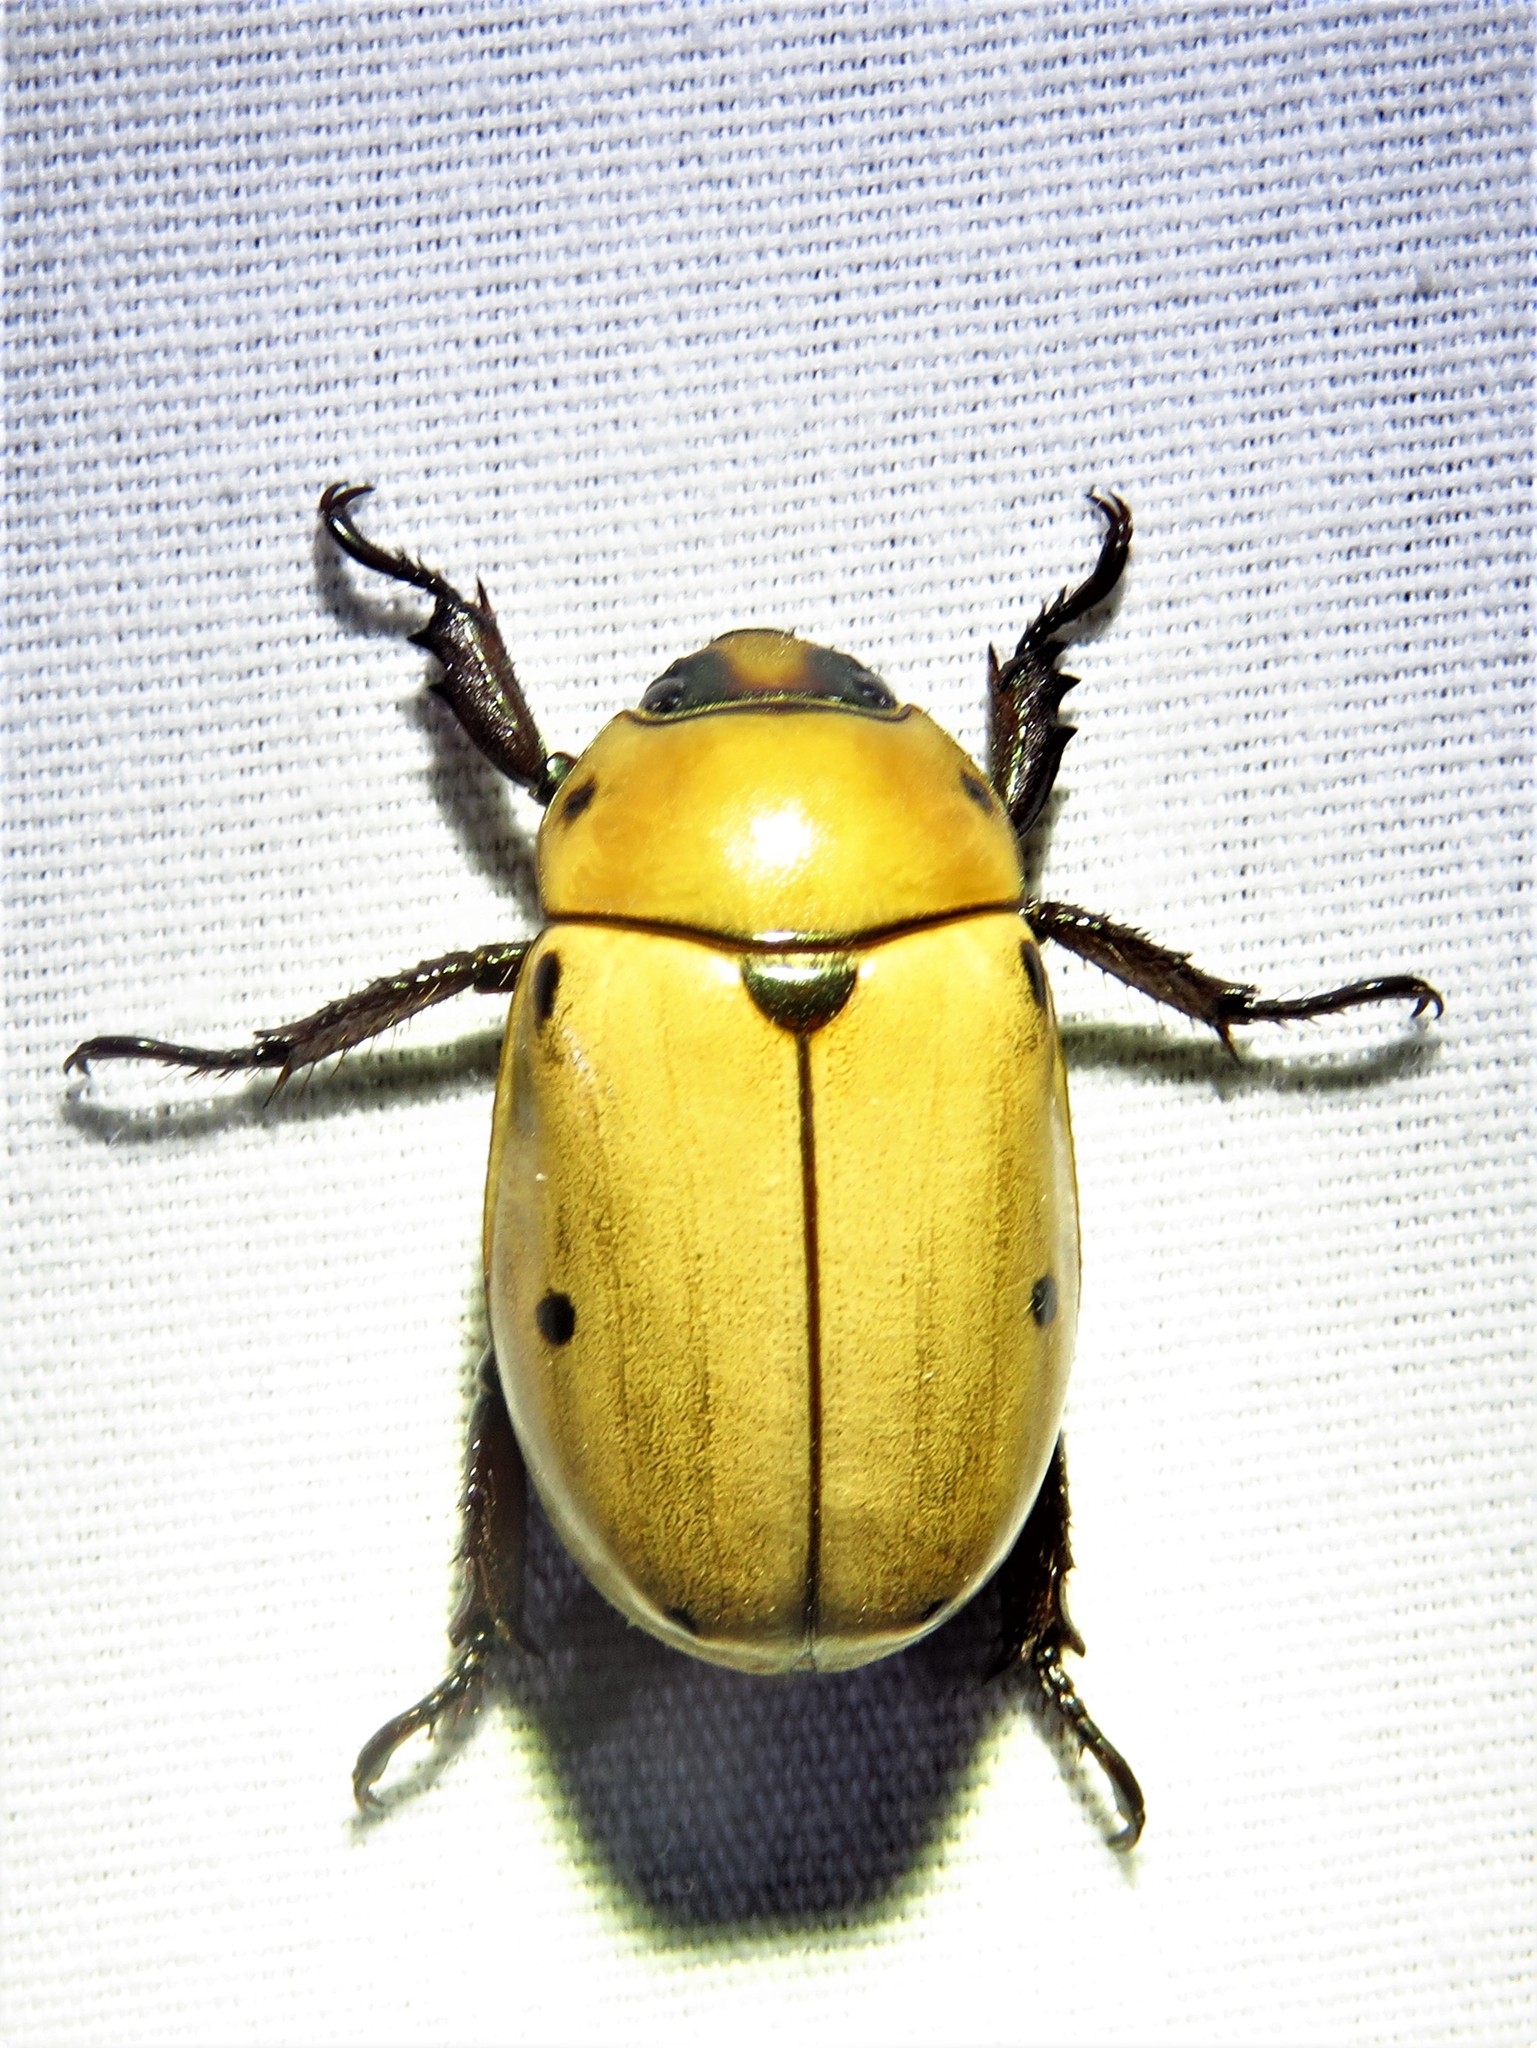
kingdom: Animalia
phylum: Arthropoda
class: Insecta
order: Coleoptera
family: Scarabaeidae
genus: Pelidnota
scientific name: Pelidnota punctata
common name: Grapevine beetle
